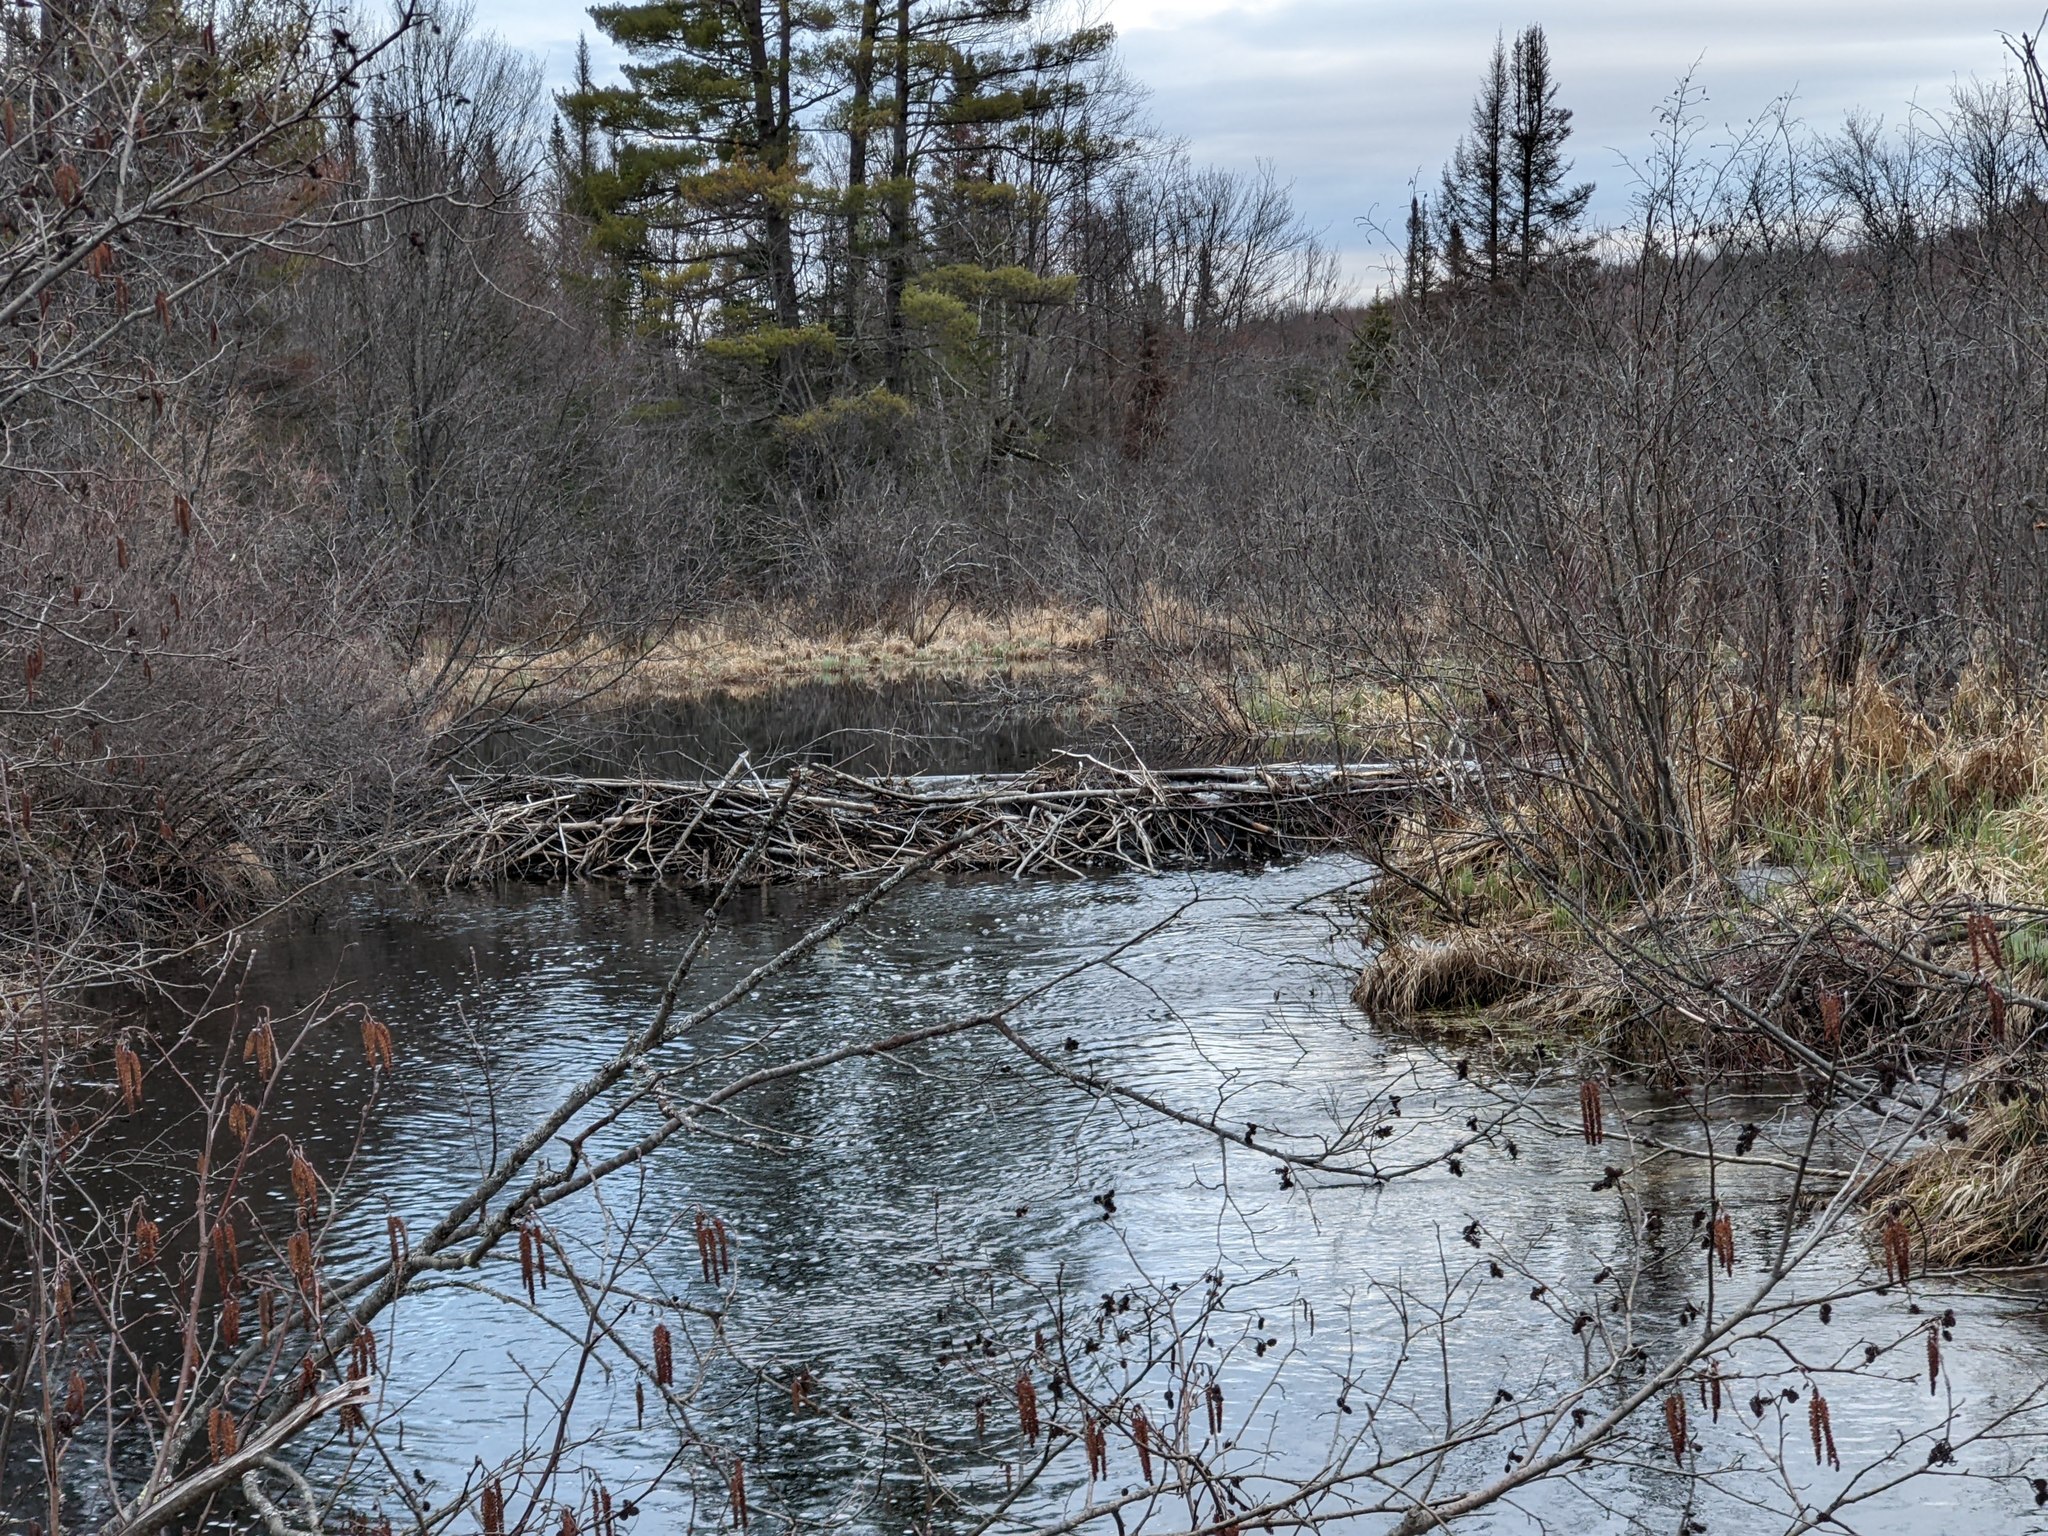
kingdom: Animalia
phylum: Chordata
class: Mammalia
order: Rodentia
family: Castoridae
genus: Castor
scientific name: Castor canadensis
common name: American beaver
